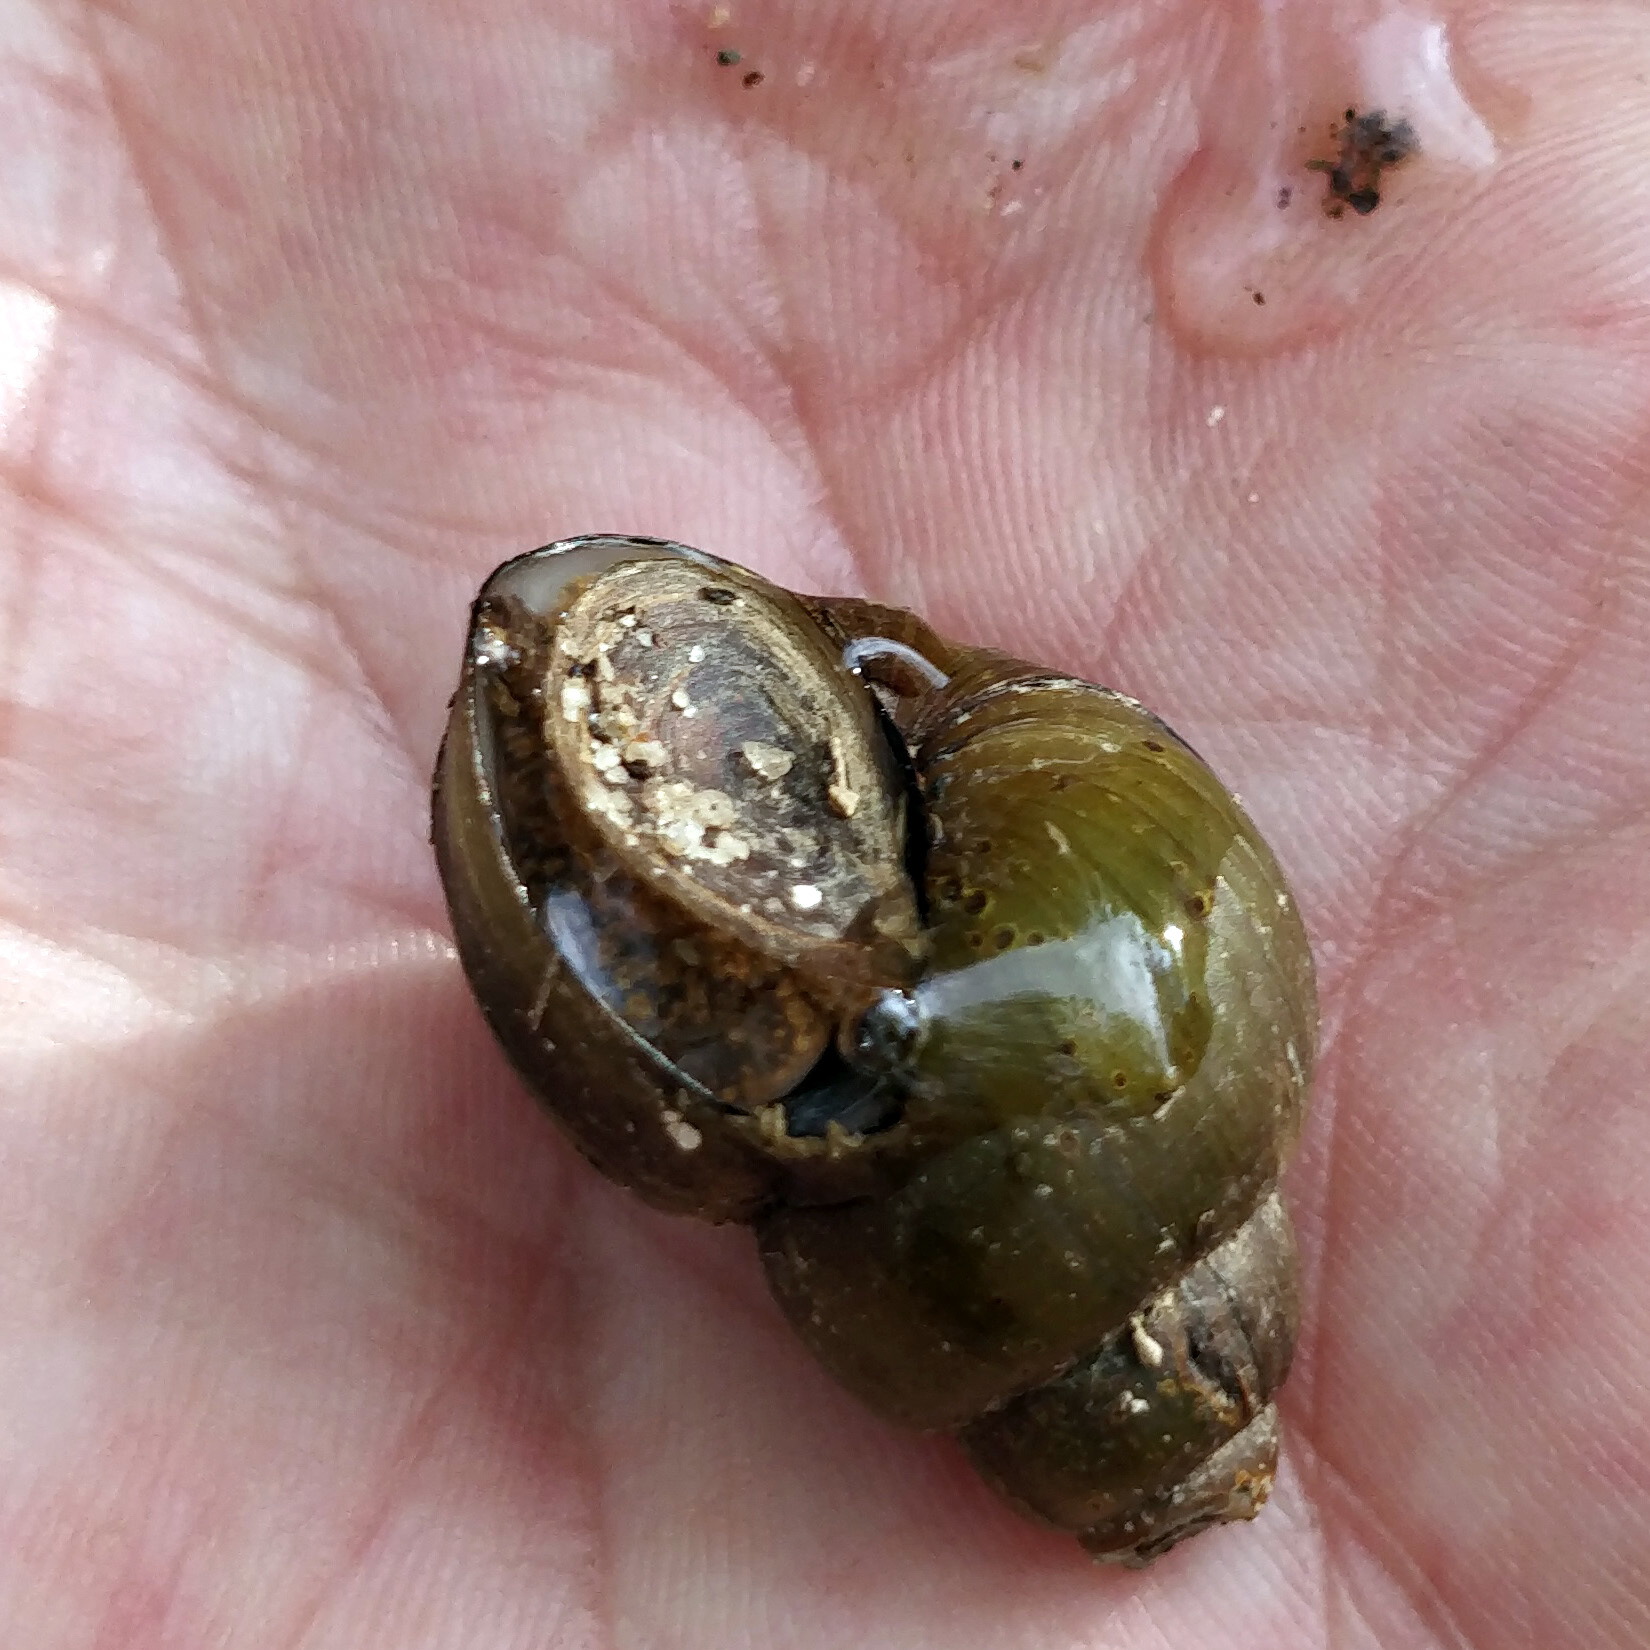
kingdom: Animalia
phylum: Mollusca
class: Gastropoda
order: Architaenioglossa
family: Viviparidae
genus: Cipangopaludina
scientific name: Cipangopaludina chinensis
